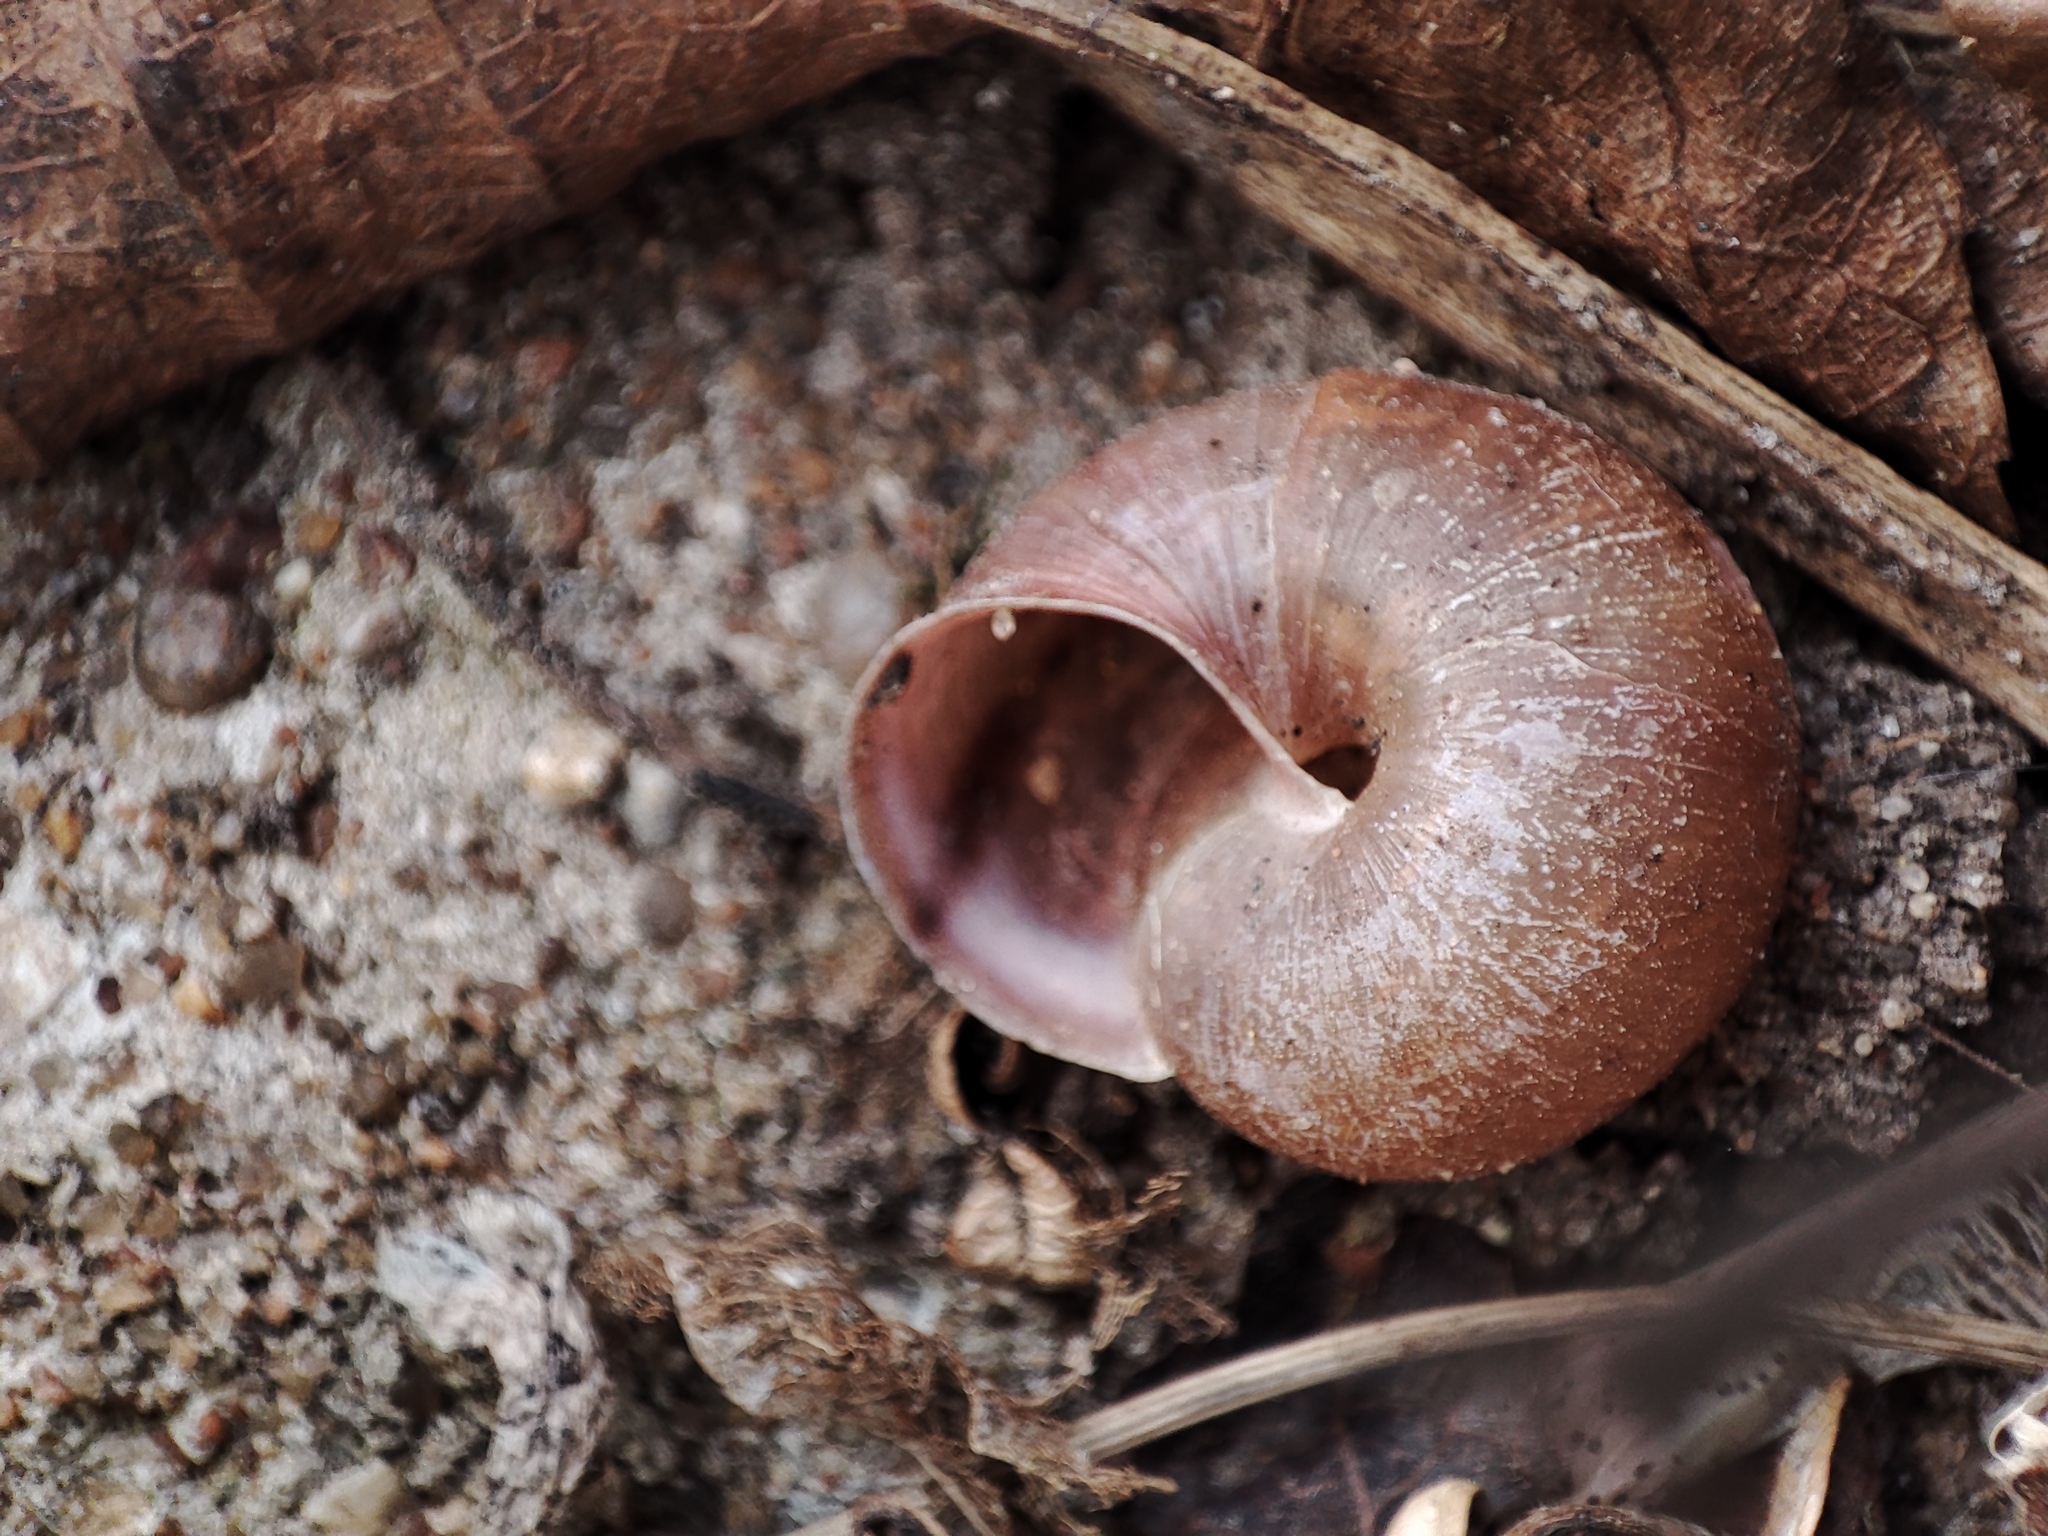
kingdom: Animalia
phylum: Mollusca
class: Gastropoda
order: Stylommatophora
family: Camaenidae
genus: Fruticicola
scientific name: Fruticicola fruticum
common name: Bush snail
